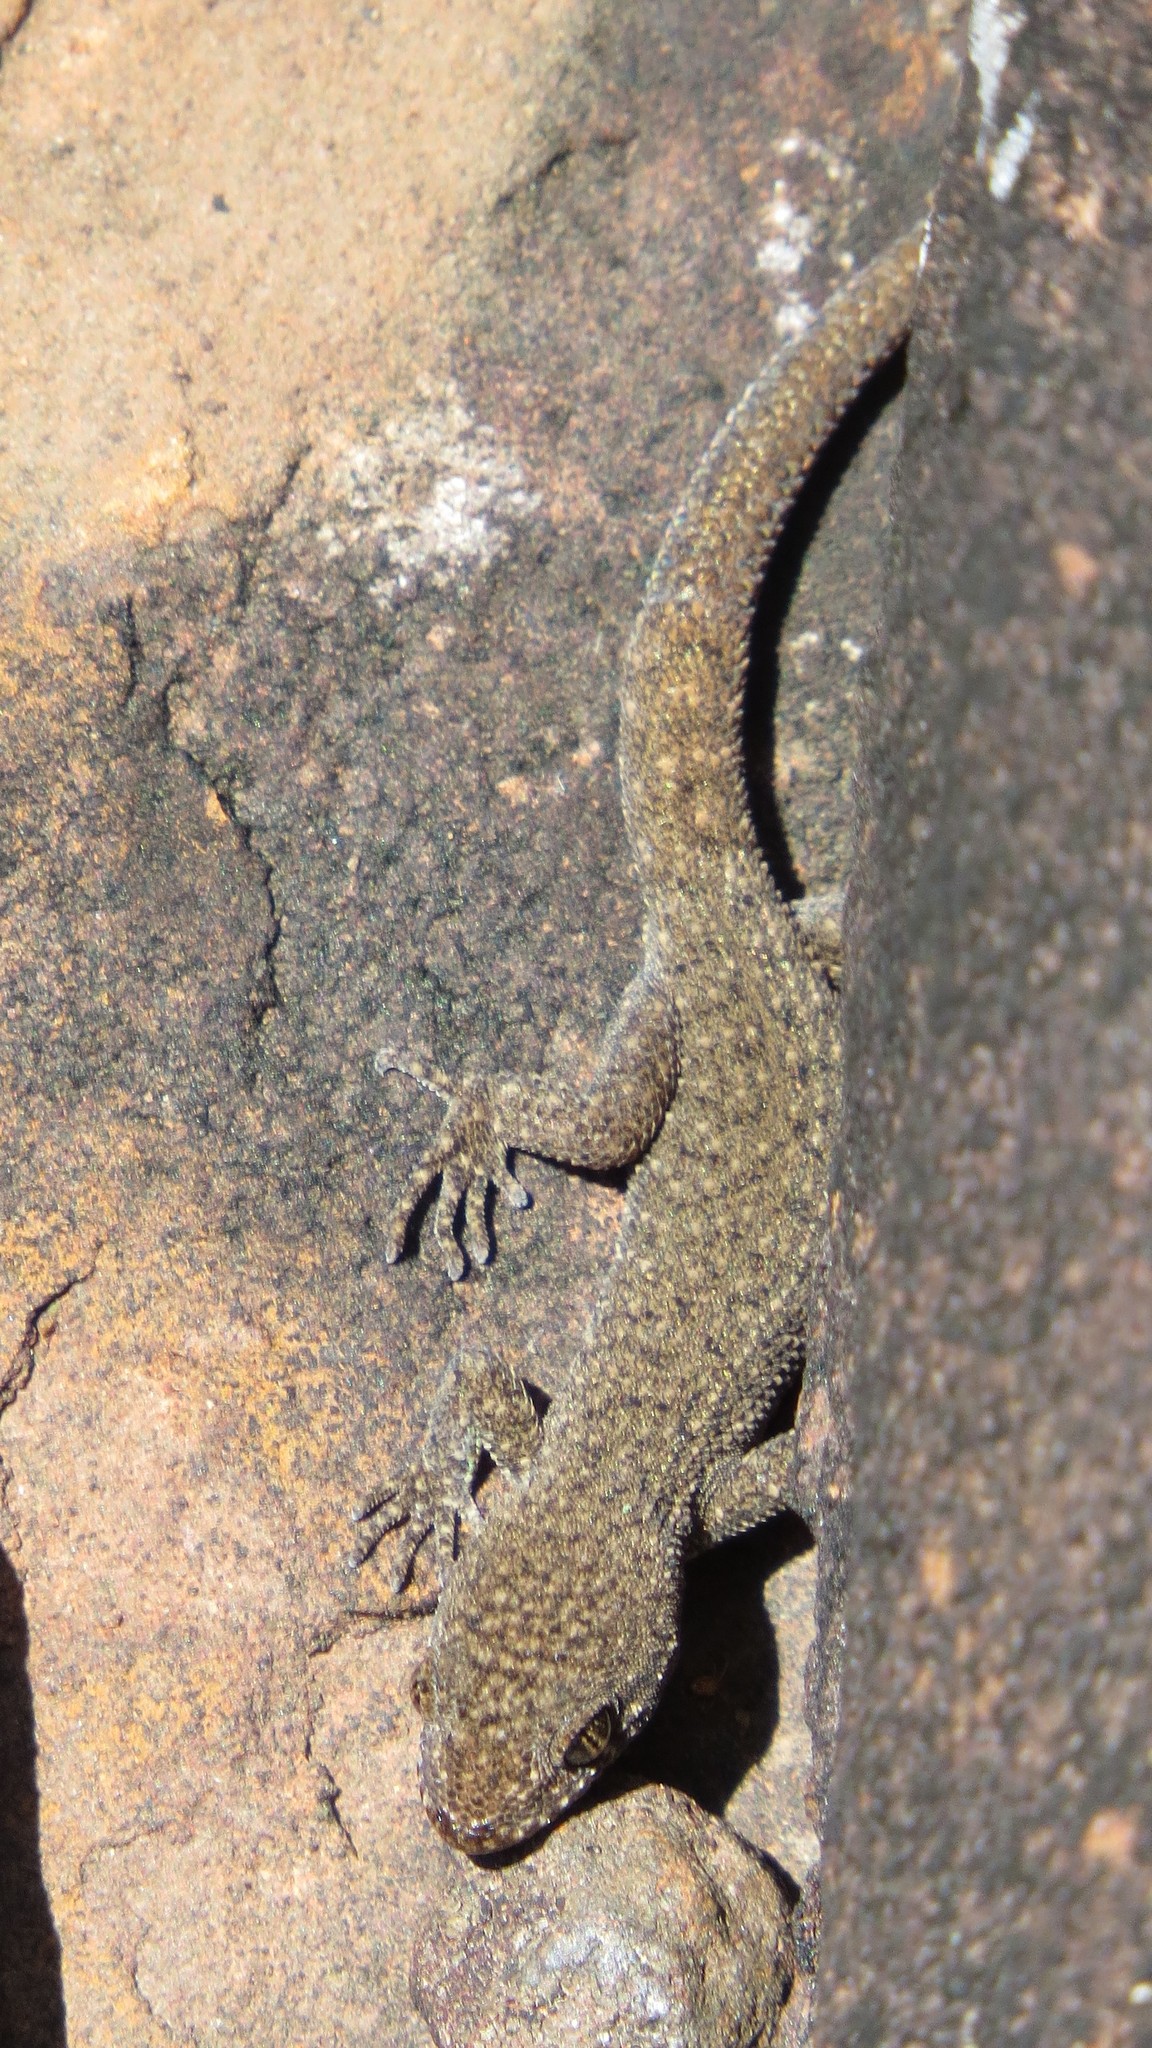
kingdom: Animalia
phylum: Chordata
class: Squamata
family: Phyllodactylidae
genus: Homonota
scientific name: Homonota uruguayensis
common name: Uruguay marked gecko
